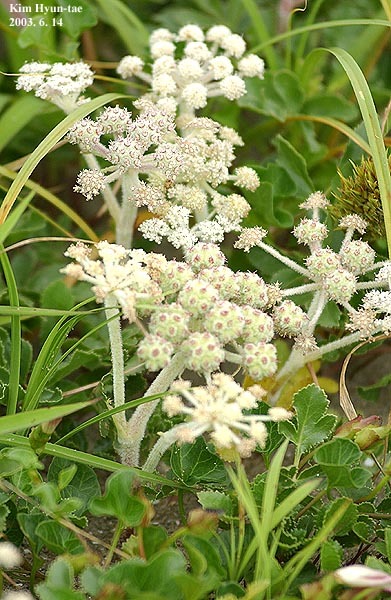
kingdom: Plantae
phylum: Tracheophyta
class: Magnoliopsida
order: Apiales
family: Apiaceae
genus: Glehnia
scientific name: Glehnia littoralis
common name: Beach silvertop
